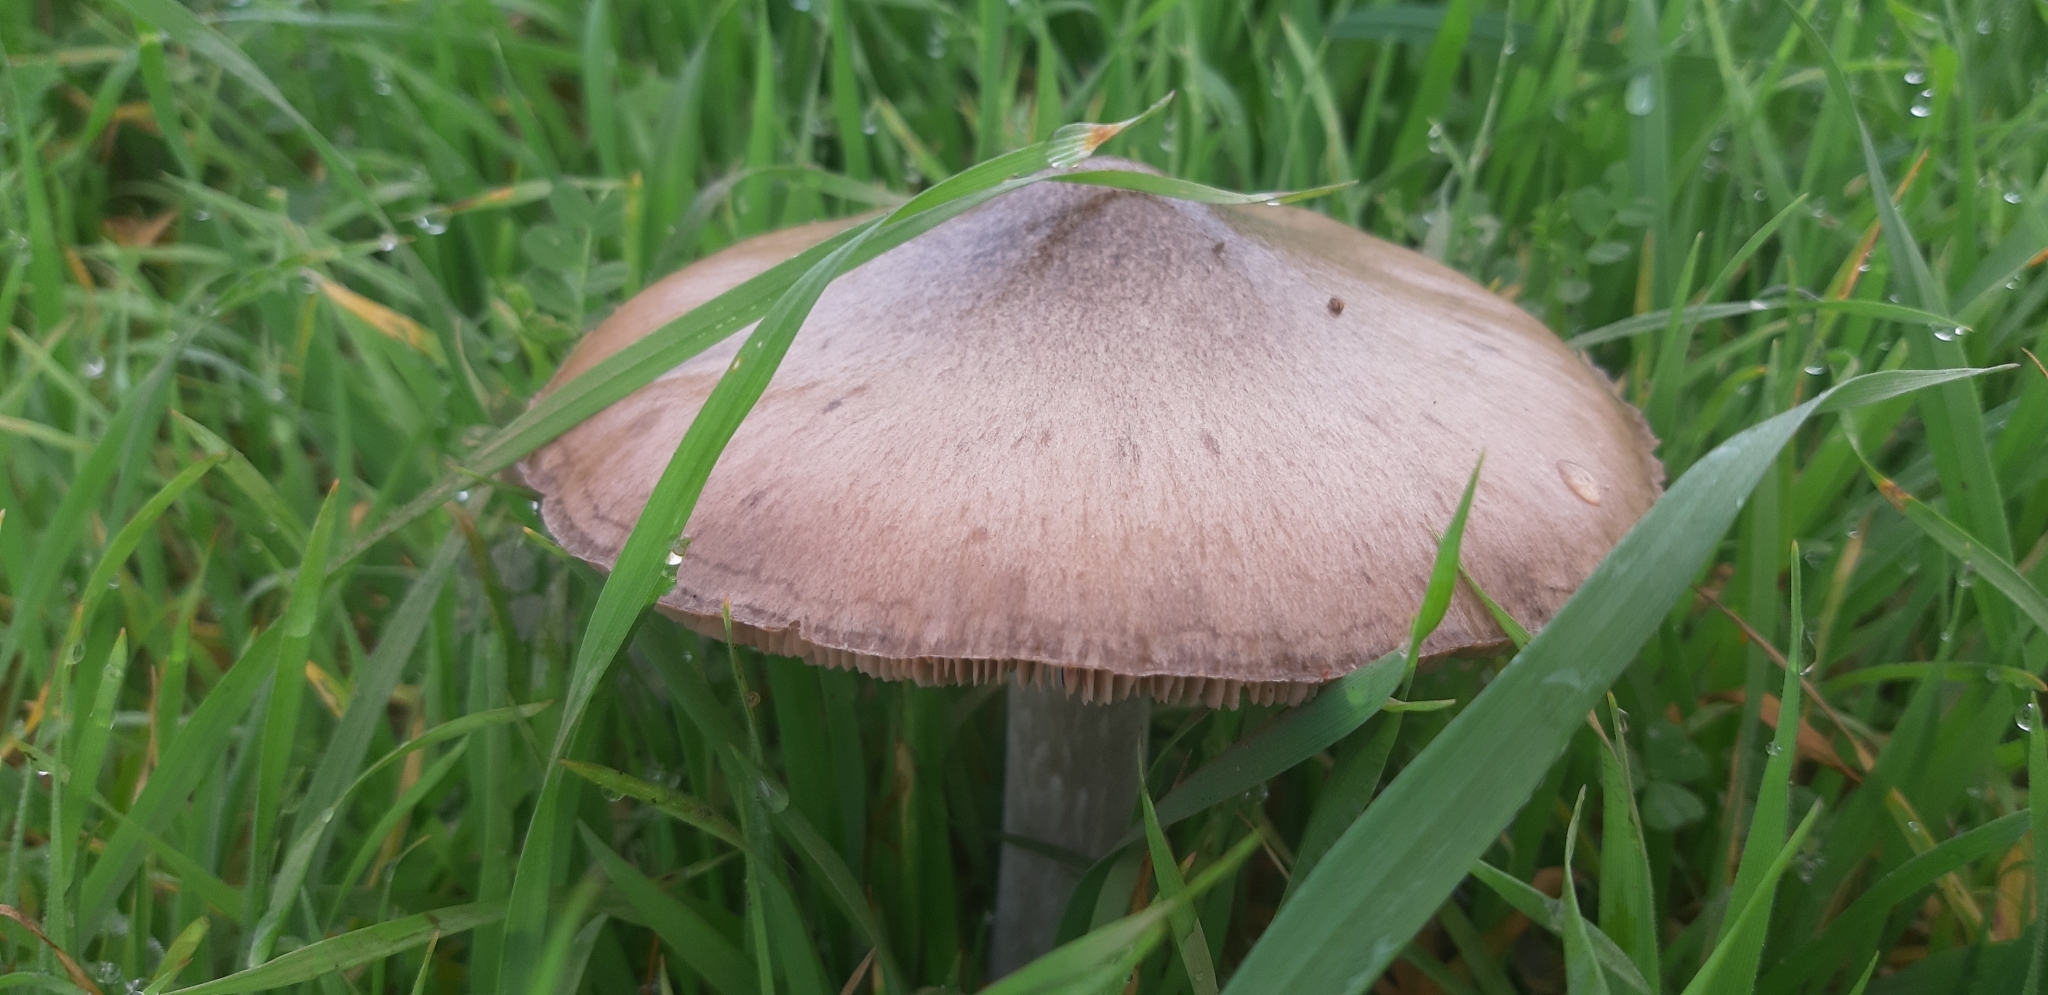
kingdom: Fungi
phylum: Basidiomycota
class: Agaricomycetes
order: Agaricales
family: Pluteaceae
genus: Volvopluteus
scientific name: Volvopluteus gloiocephalus
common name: Stubble rosegill
